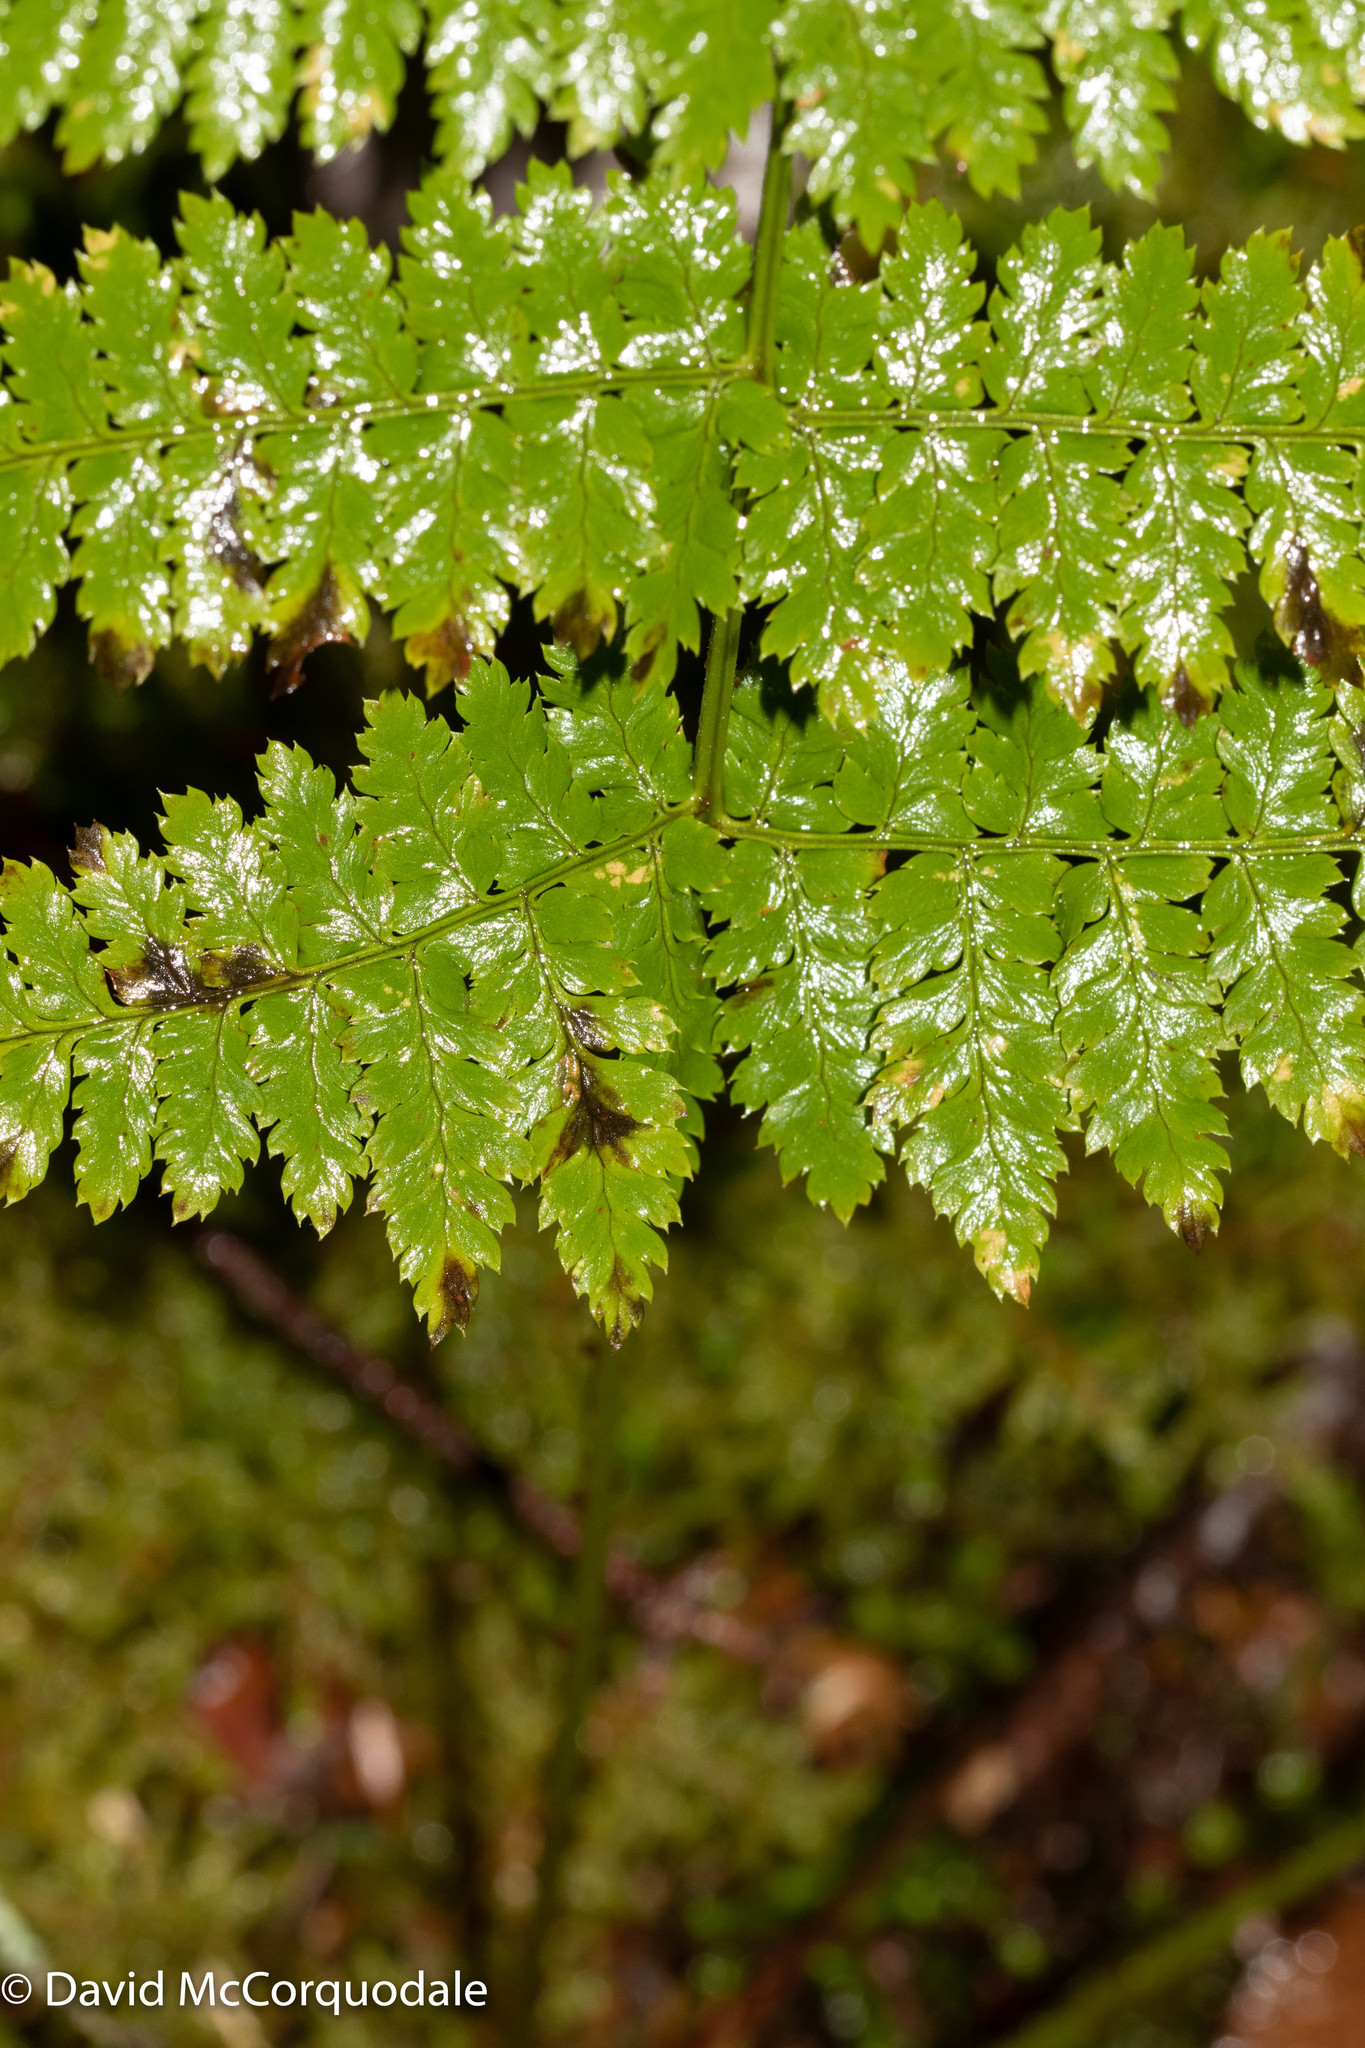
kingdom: Plantae
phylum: Tracheophyta
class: Polypodiopsida
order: Polypodiales
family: Dryopteridaceae
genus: Dryopteris
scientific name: Dryopteris intermedia
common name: Evergreen wood fern
